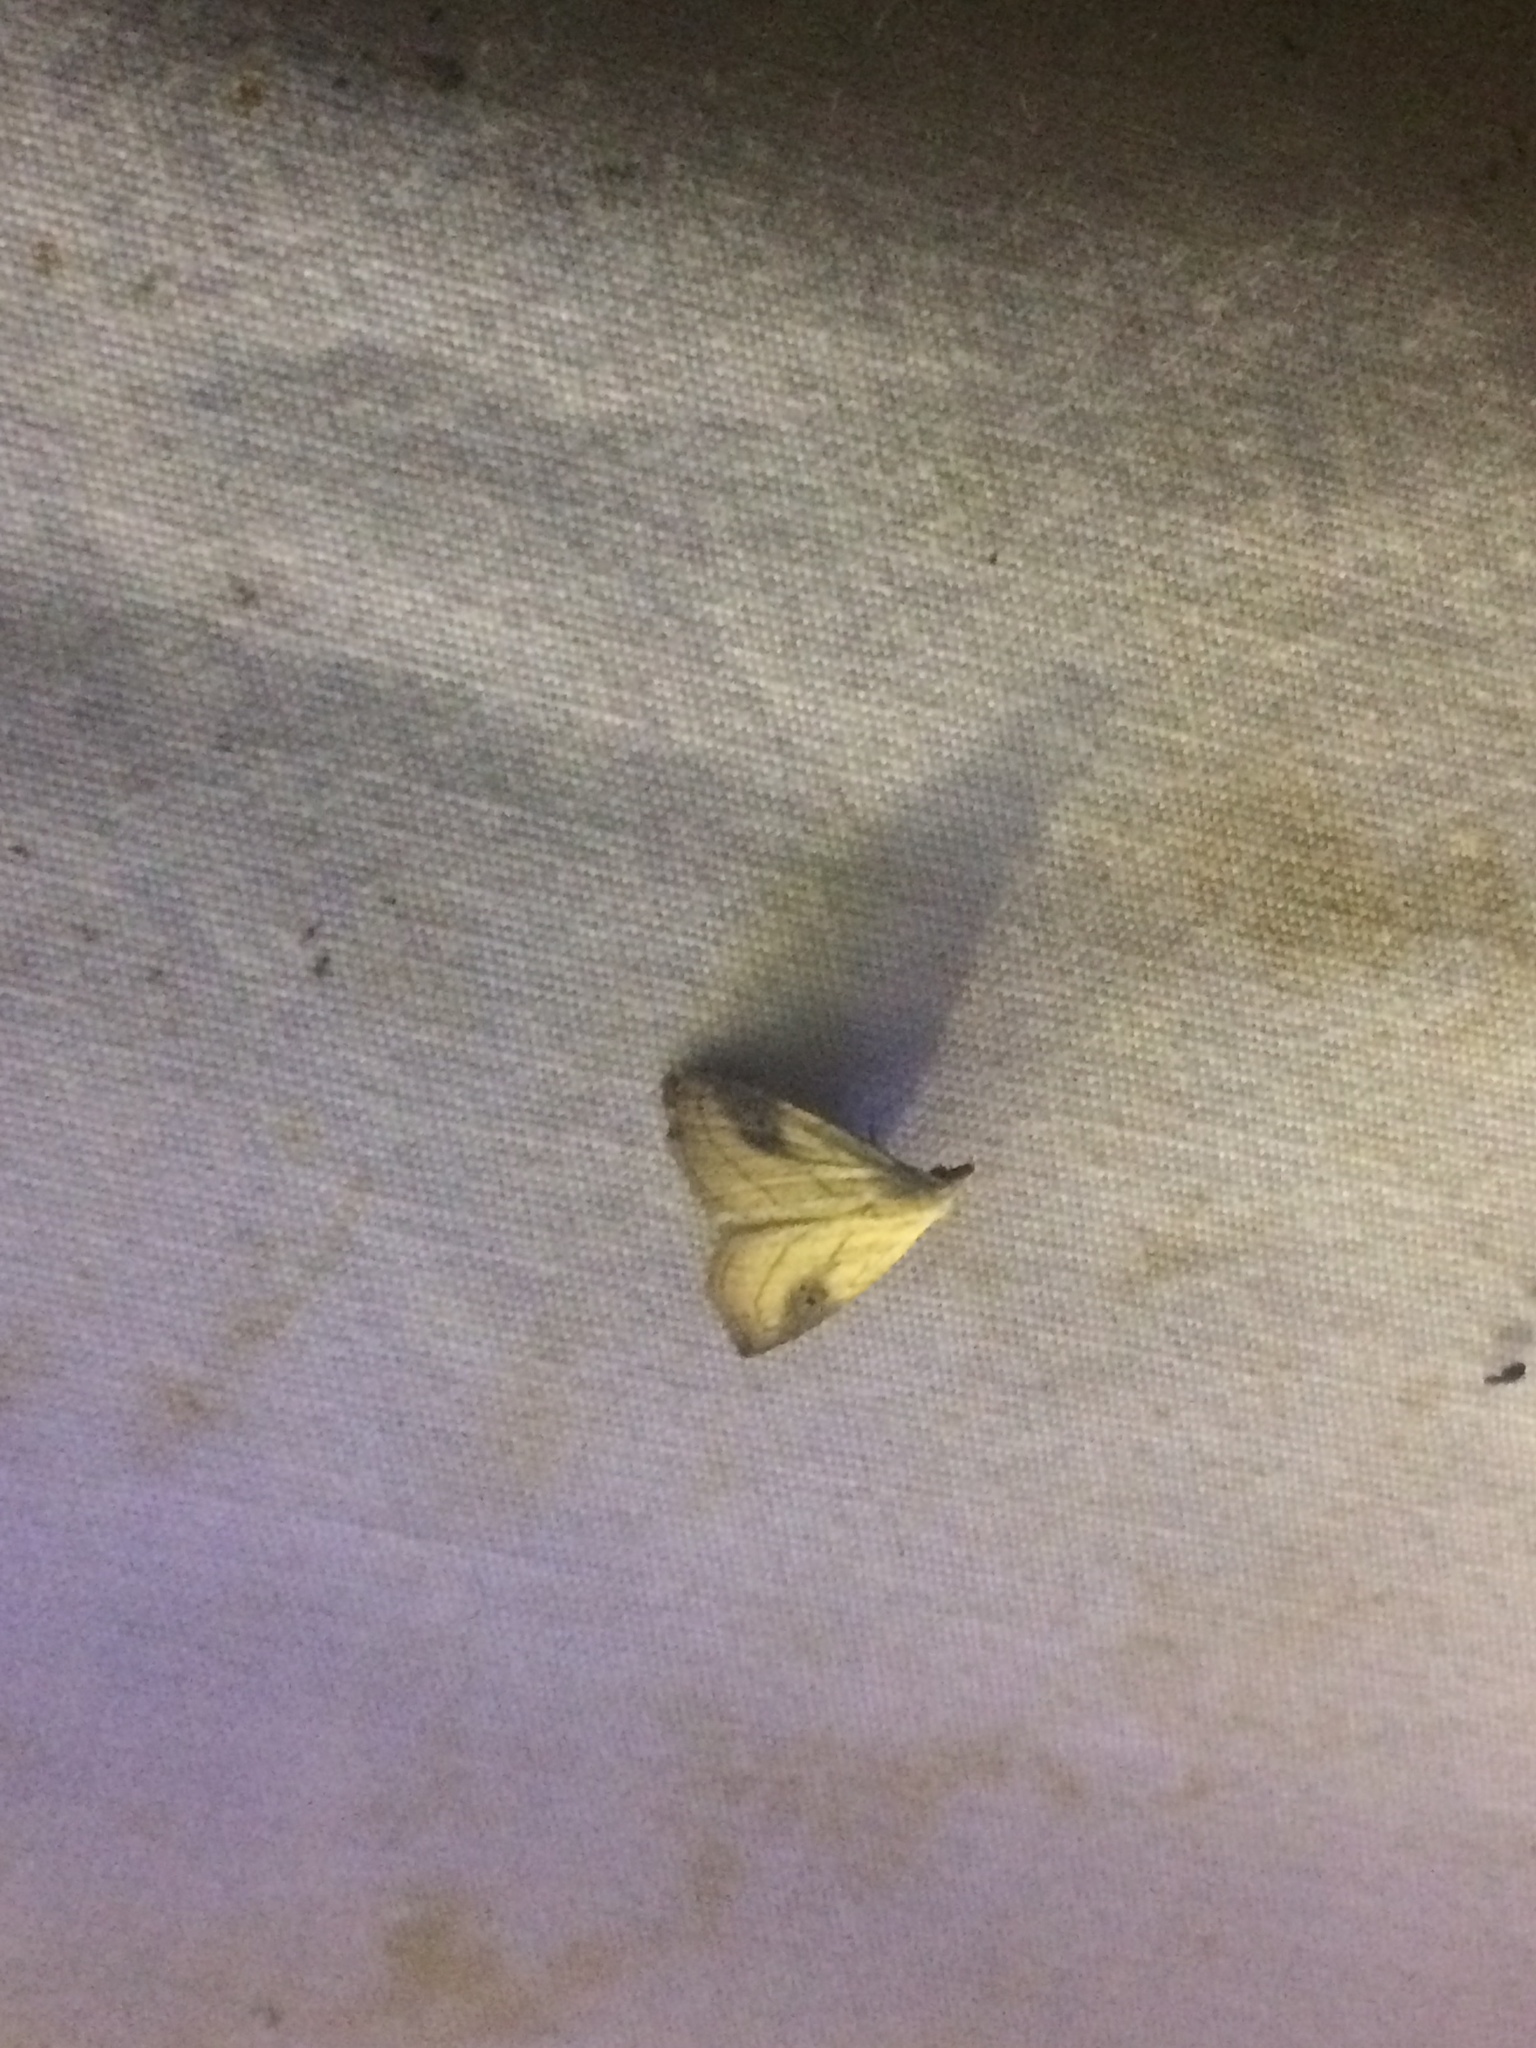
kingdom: Animalia
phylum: Arthropoda
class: Insecta
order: Lepidoptera
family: Erebidae
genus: Rivula
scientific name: Rivula propinqualis
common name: Spotted grass moth
